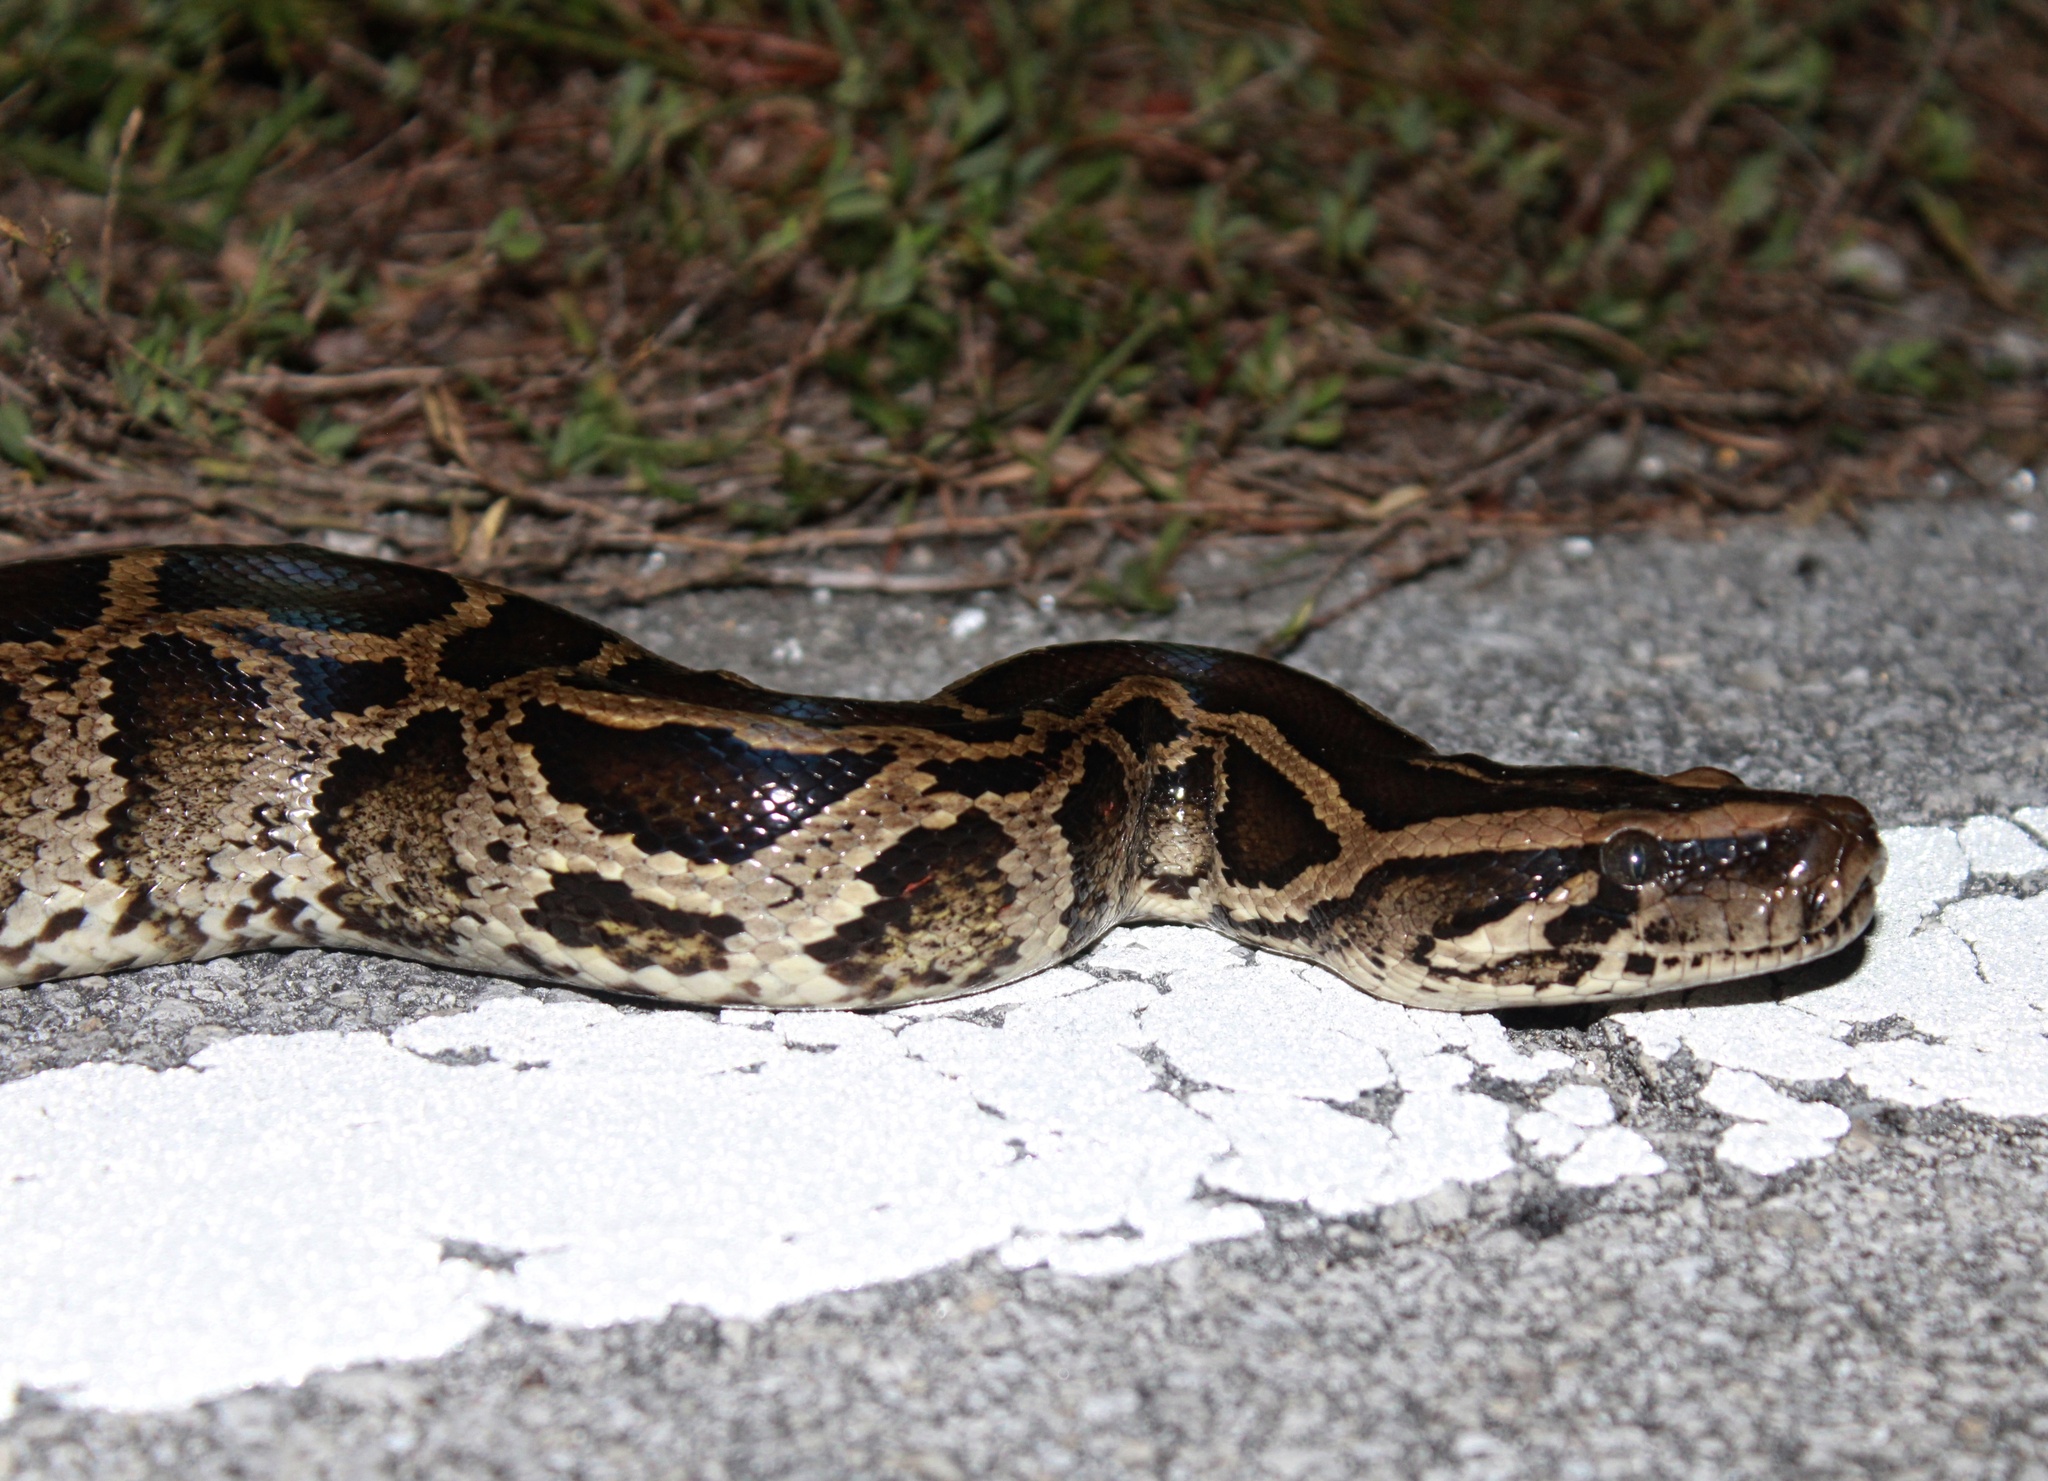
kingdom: Animalia
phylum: Chordata
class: Squamata
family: Pythonidae
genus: Python
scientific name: Python bivittatus
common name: Burmese python
